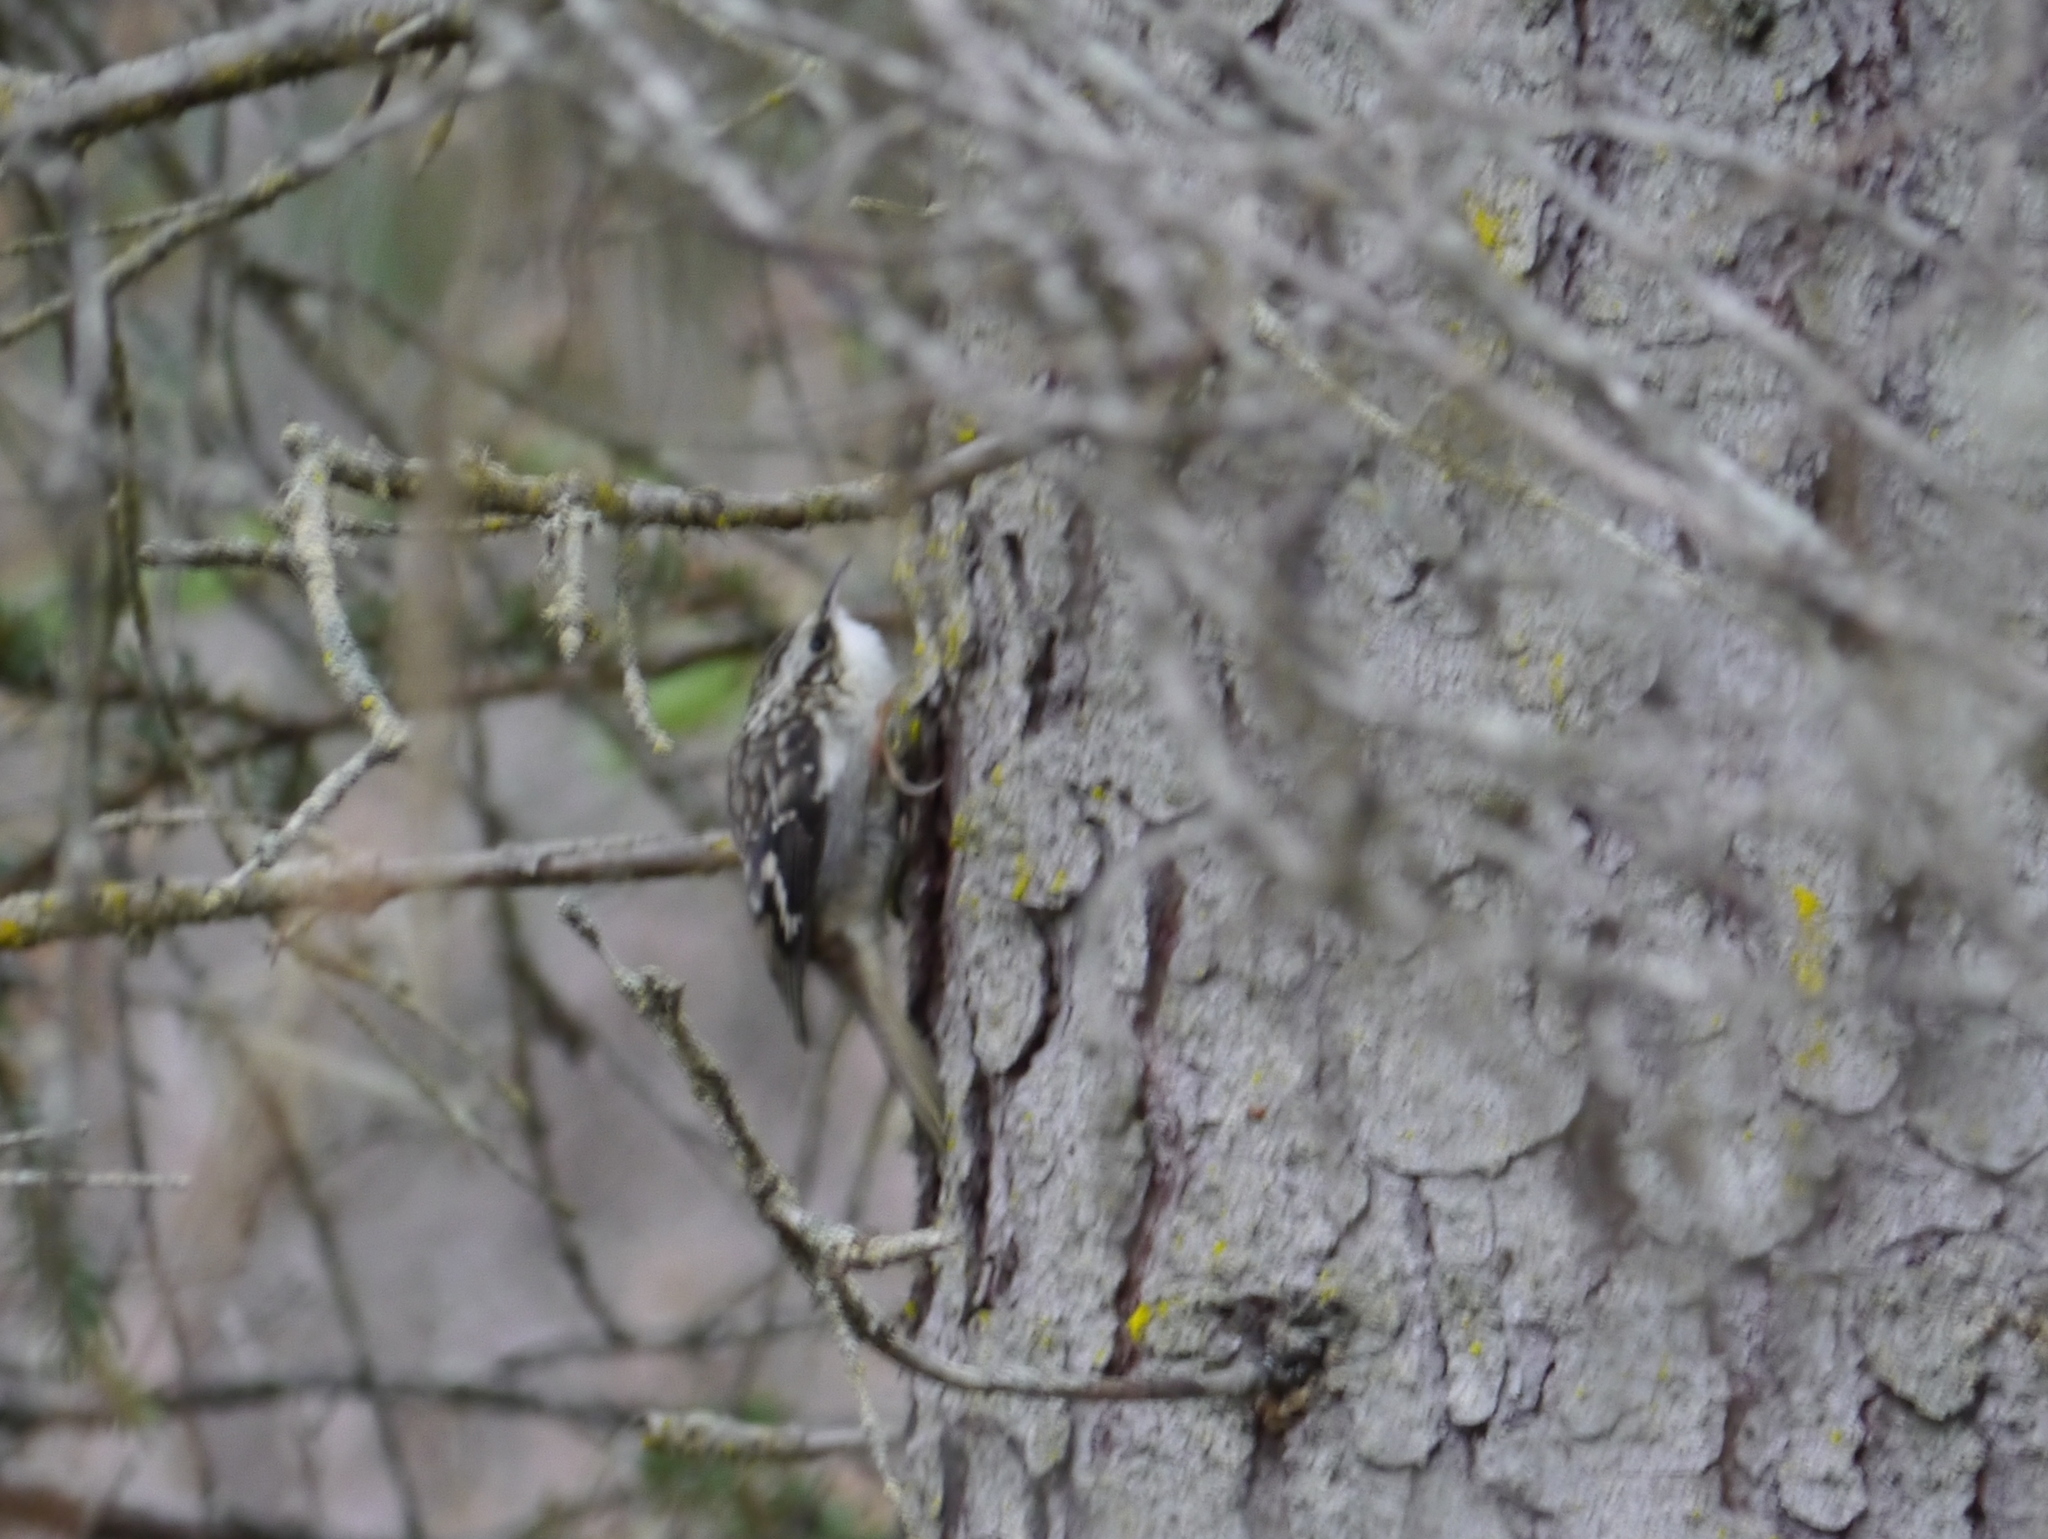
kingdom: Animalia
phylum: Chordata
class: Aves
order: Passeriformes
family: Certhiidae
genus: Certhia
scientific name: Certhia americana
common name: Brown creeper
